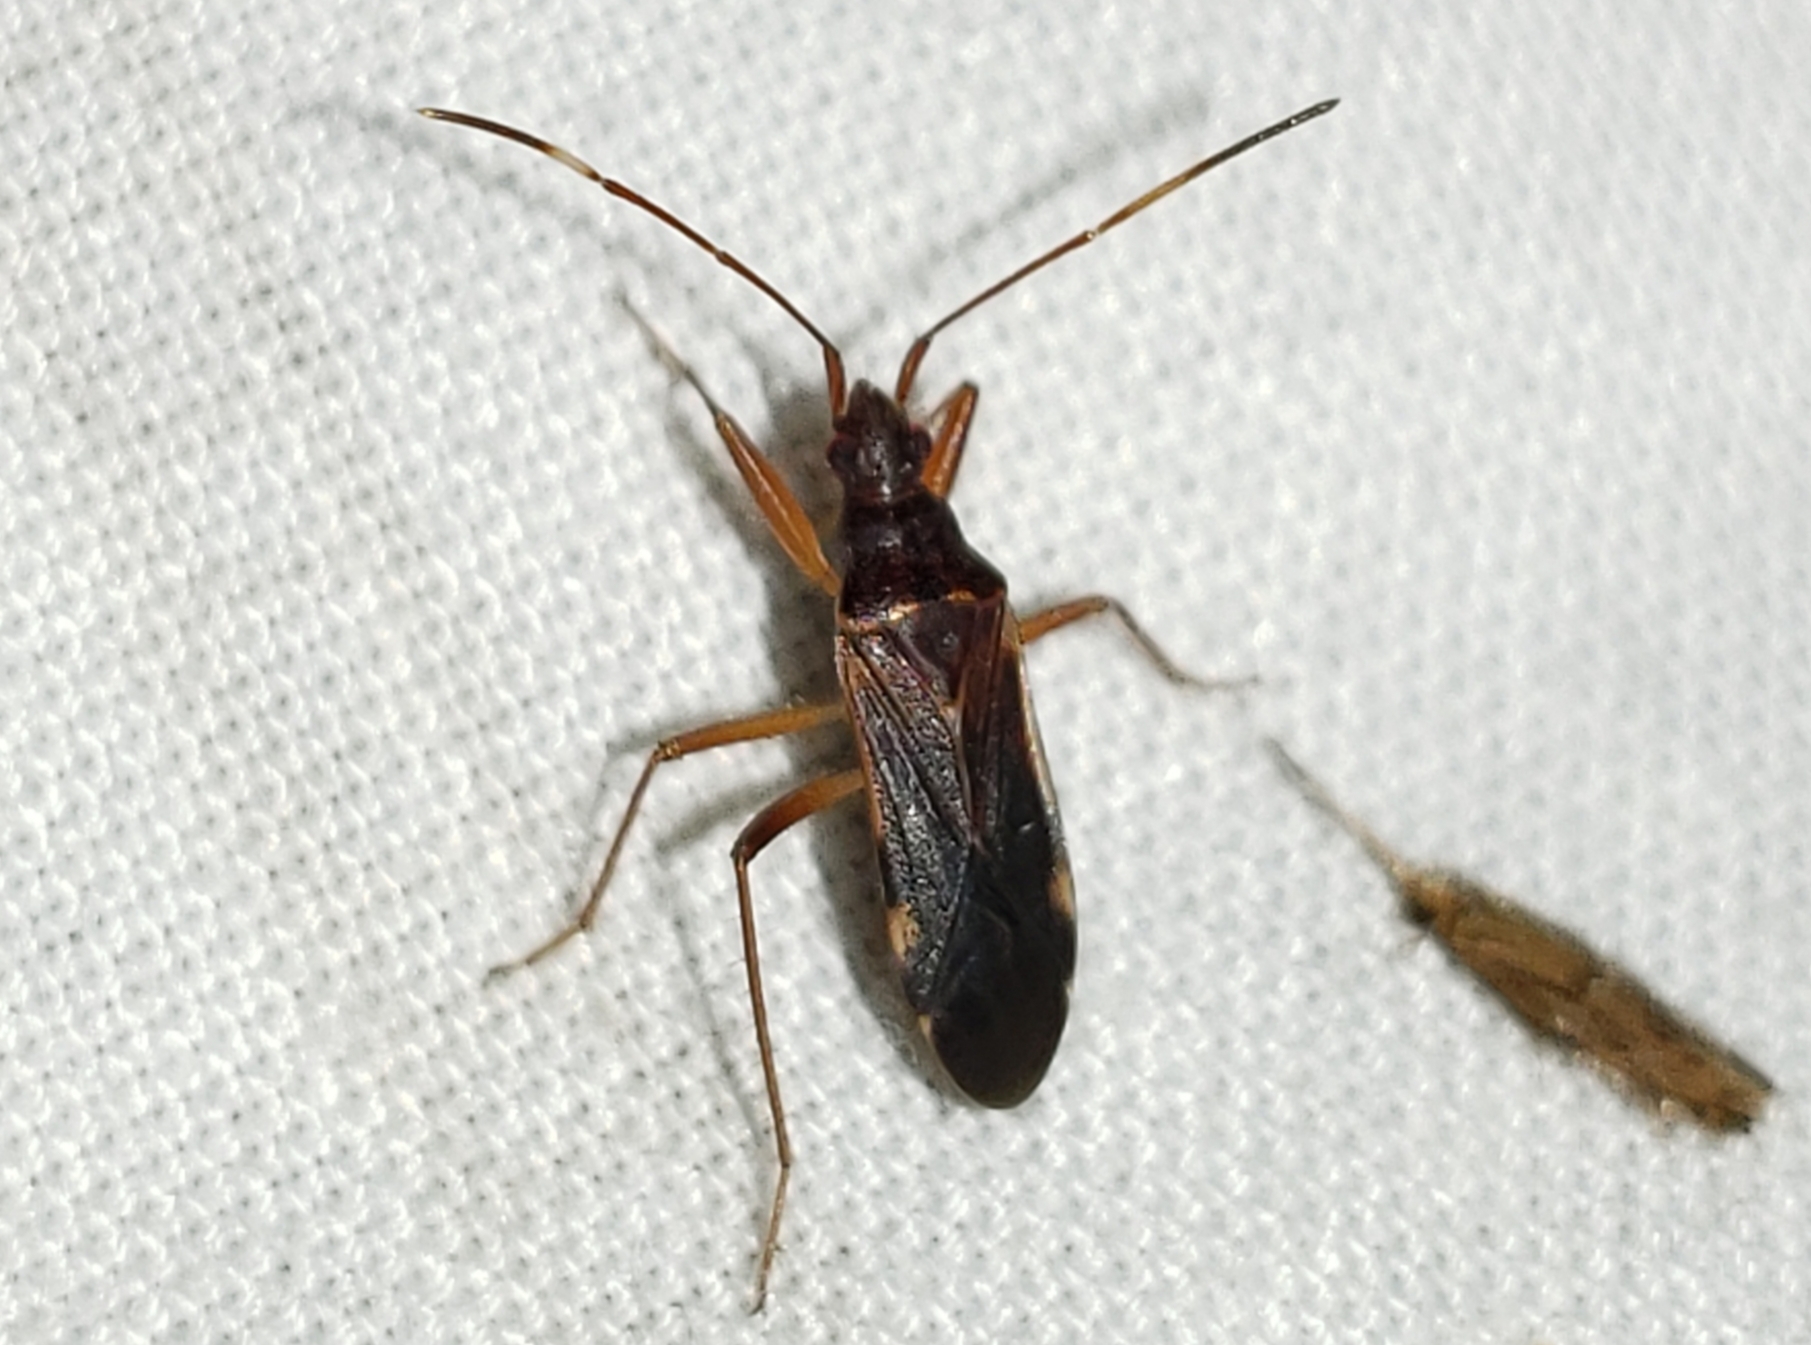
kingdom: Animalia
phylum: Arthropoda
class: Insecta
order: Hemiptera
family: Rhyparochromidae
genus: Ozophora
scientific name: Ozophora trinotata
